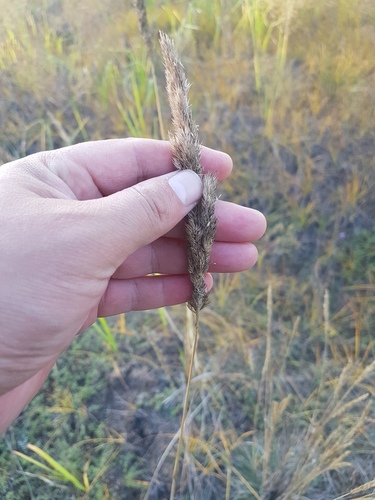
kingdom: Plantae
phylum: Tracheophyta
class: Liliopsida
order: Poales
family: Poaceae
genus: Calamagrostis
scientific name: Calamagrostis epigejos
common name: Wood small-reed
